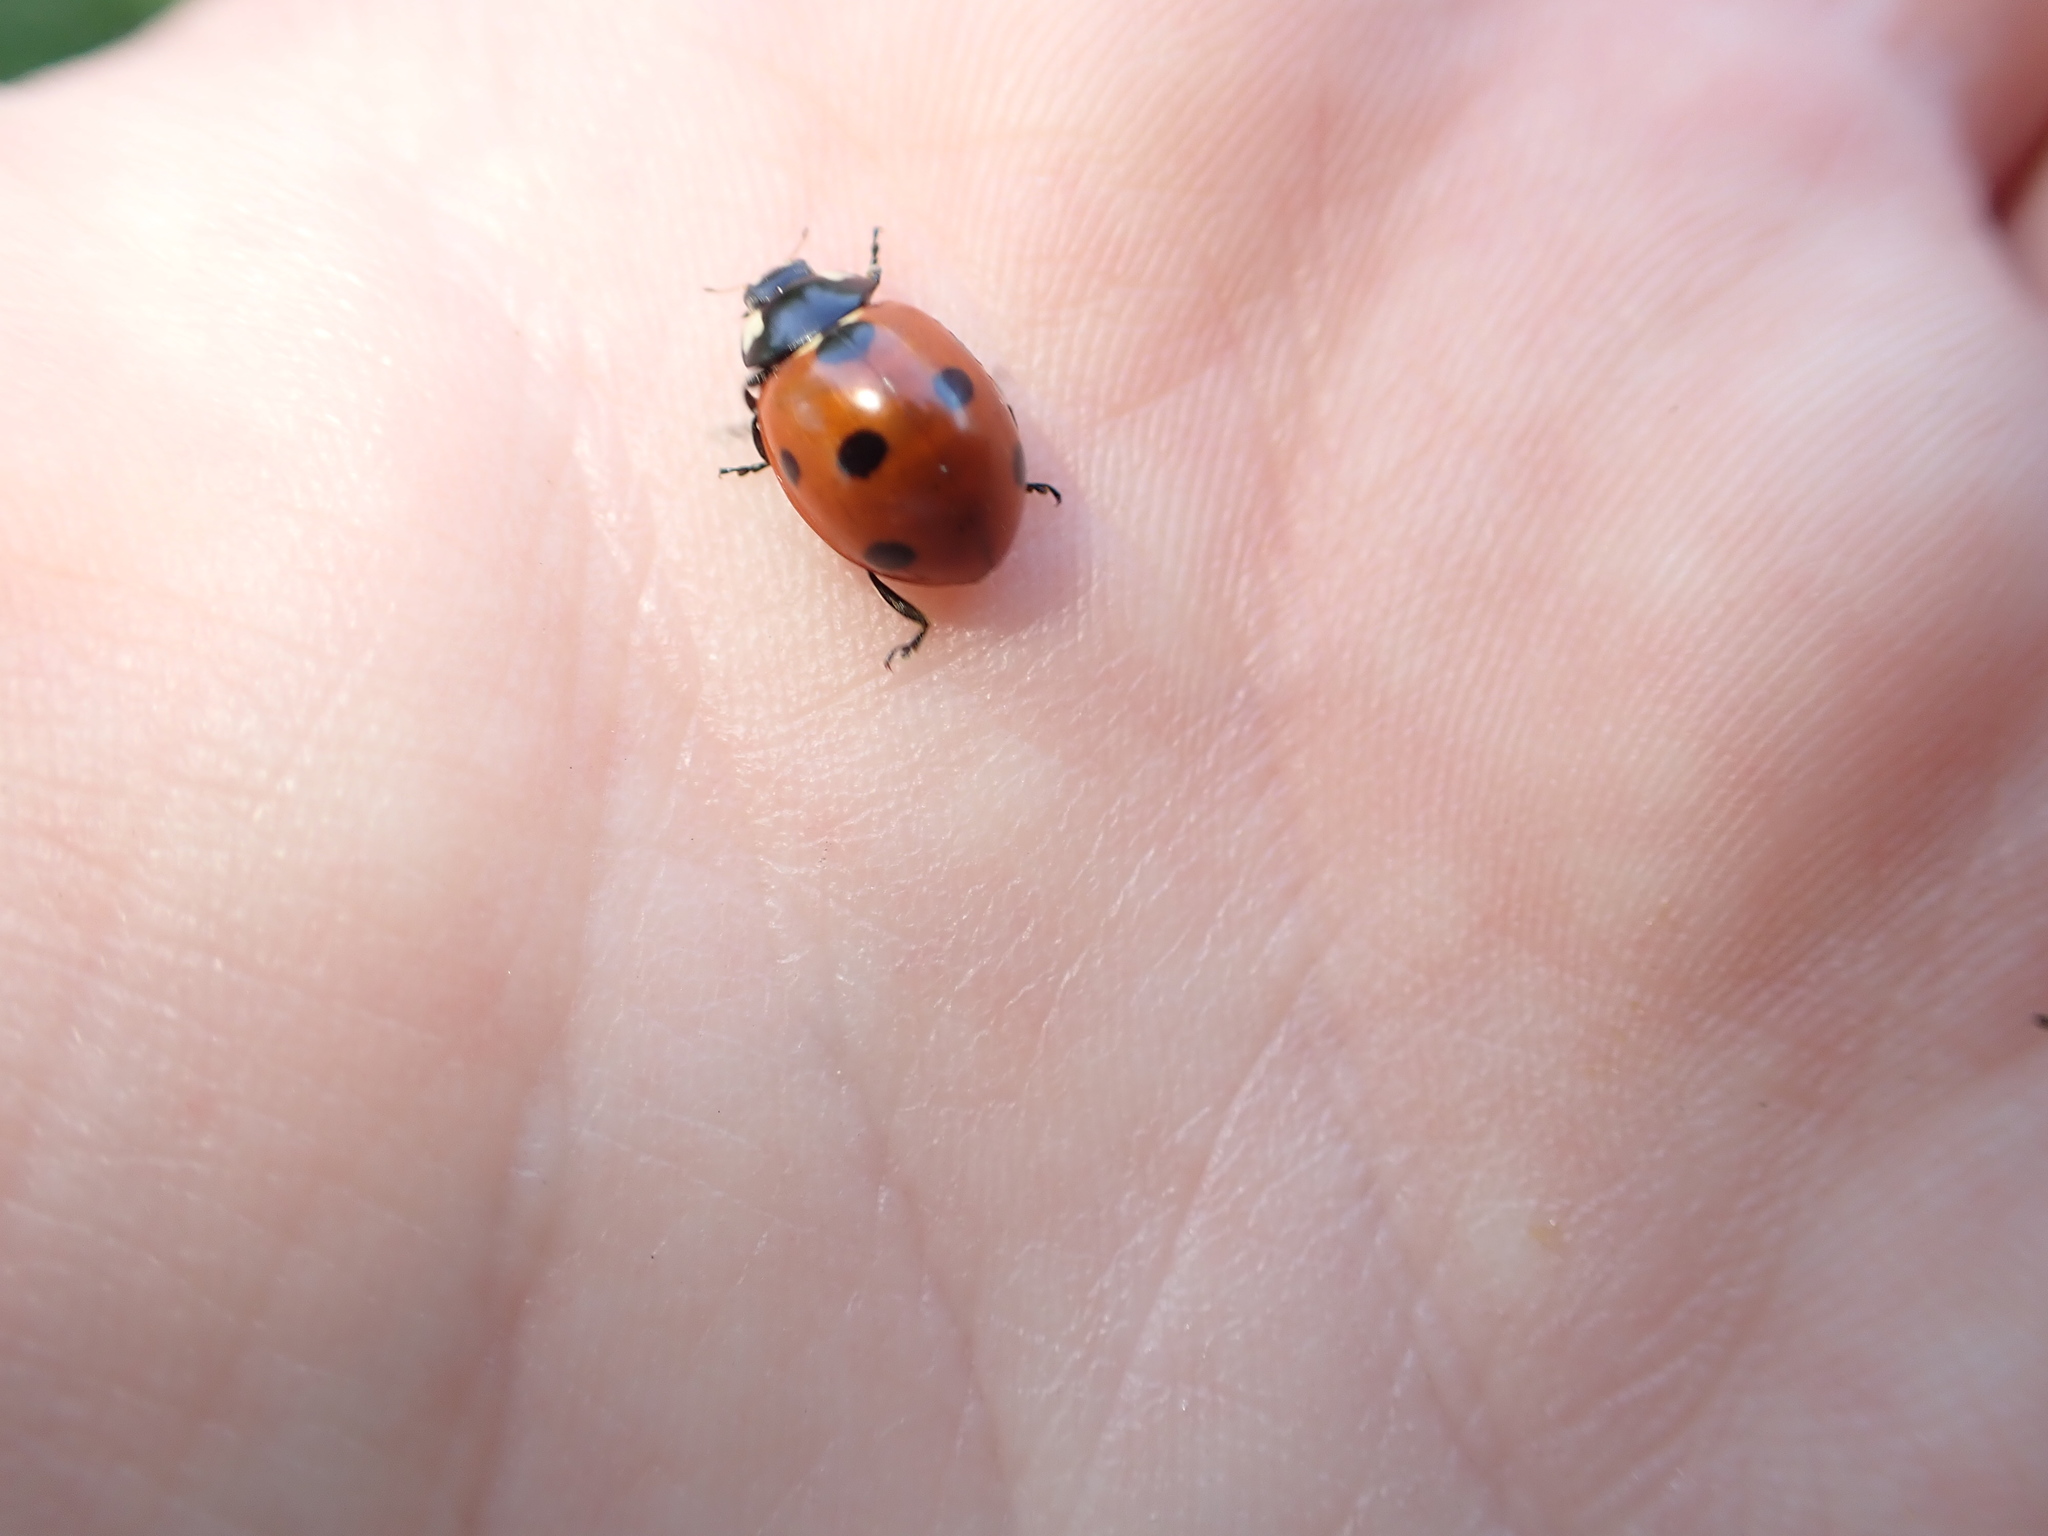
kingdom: Animalia
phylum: Arthropoda
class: Insecta
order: Coleoptera
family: Coccinellidae
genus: Coccinella
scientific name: Coccinella septempunctata
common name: Sevenspotted lady beetle
